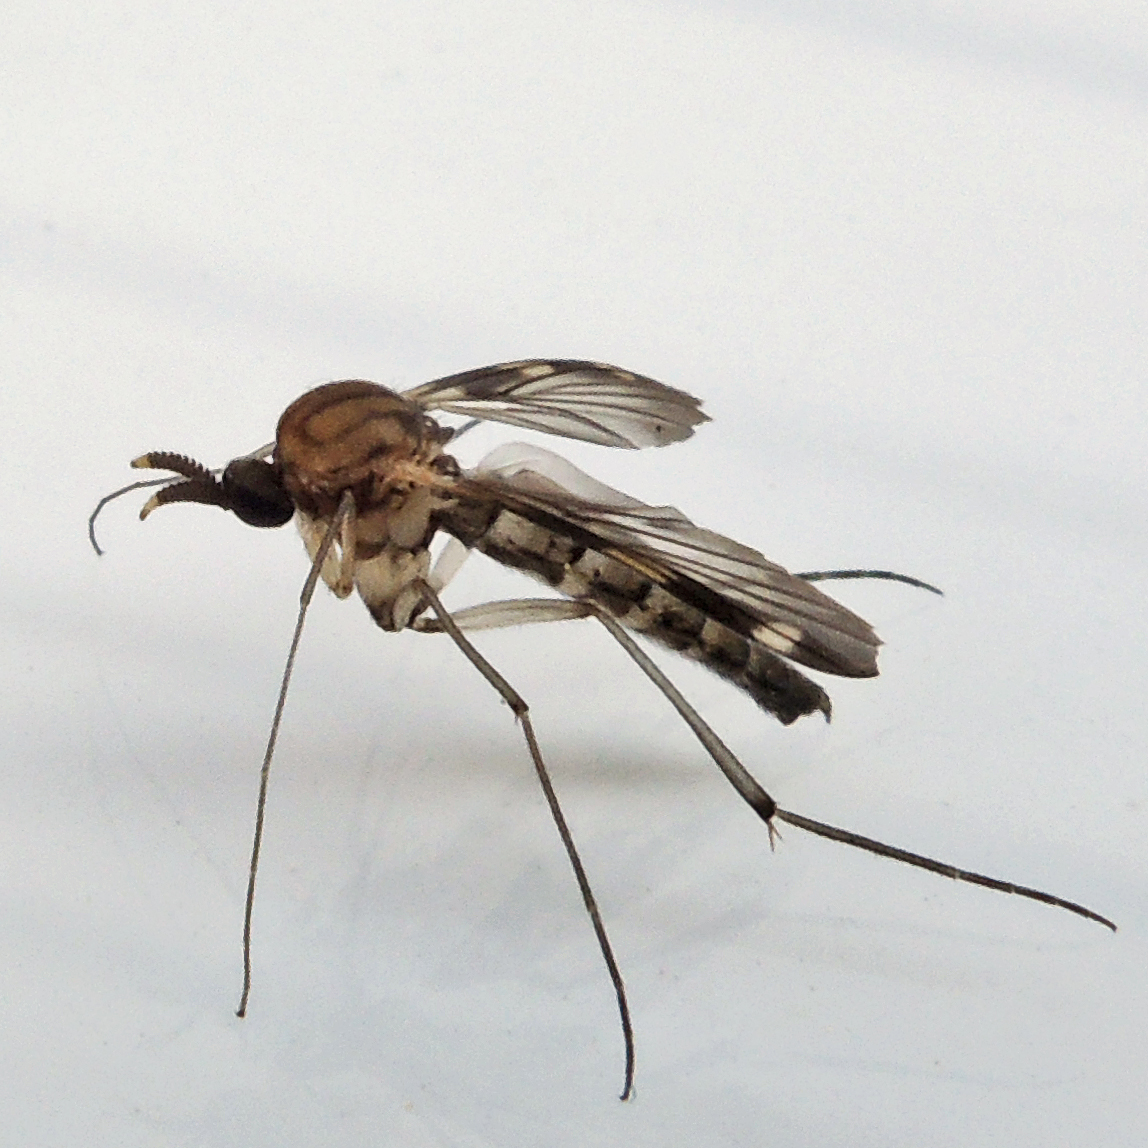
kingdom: Animalia
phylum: Arthropoda
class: Insecta
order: Diptera
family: Keroplatidae
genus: Heteropterna
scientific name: Heteropterna cressoni
